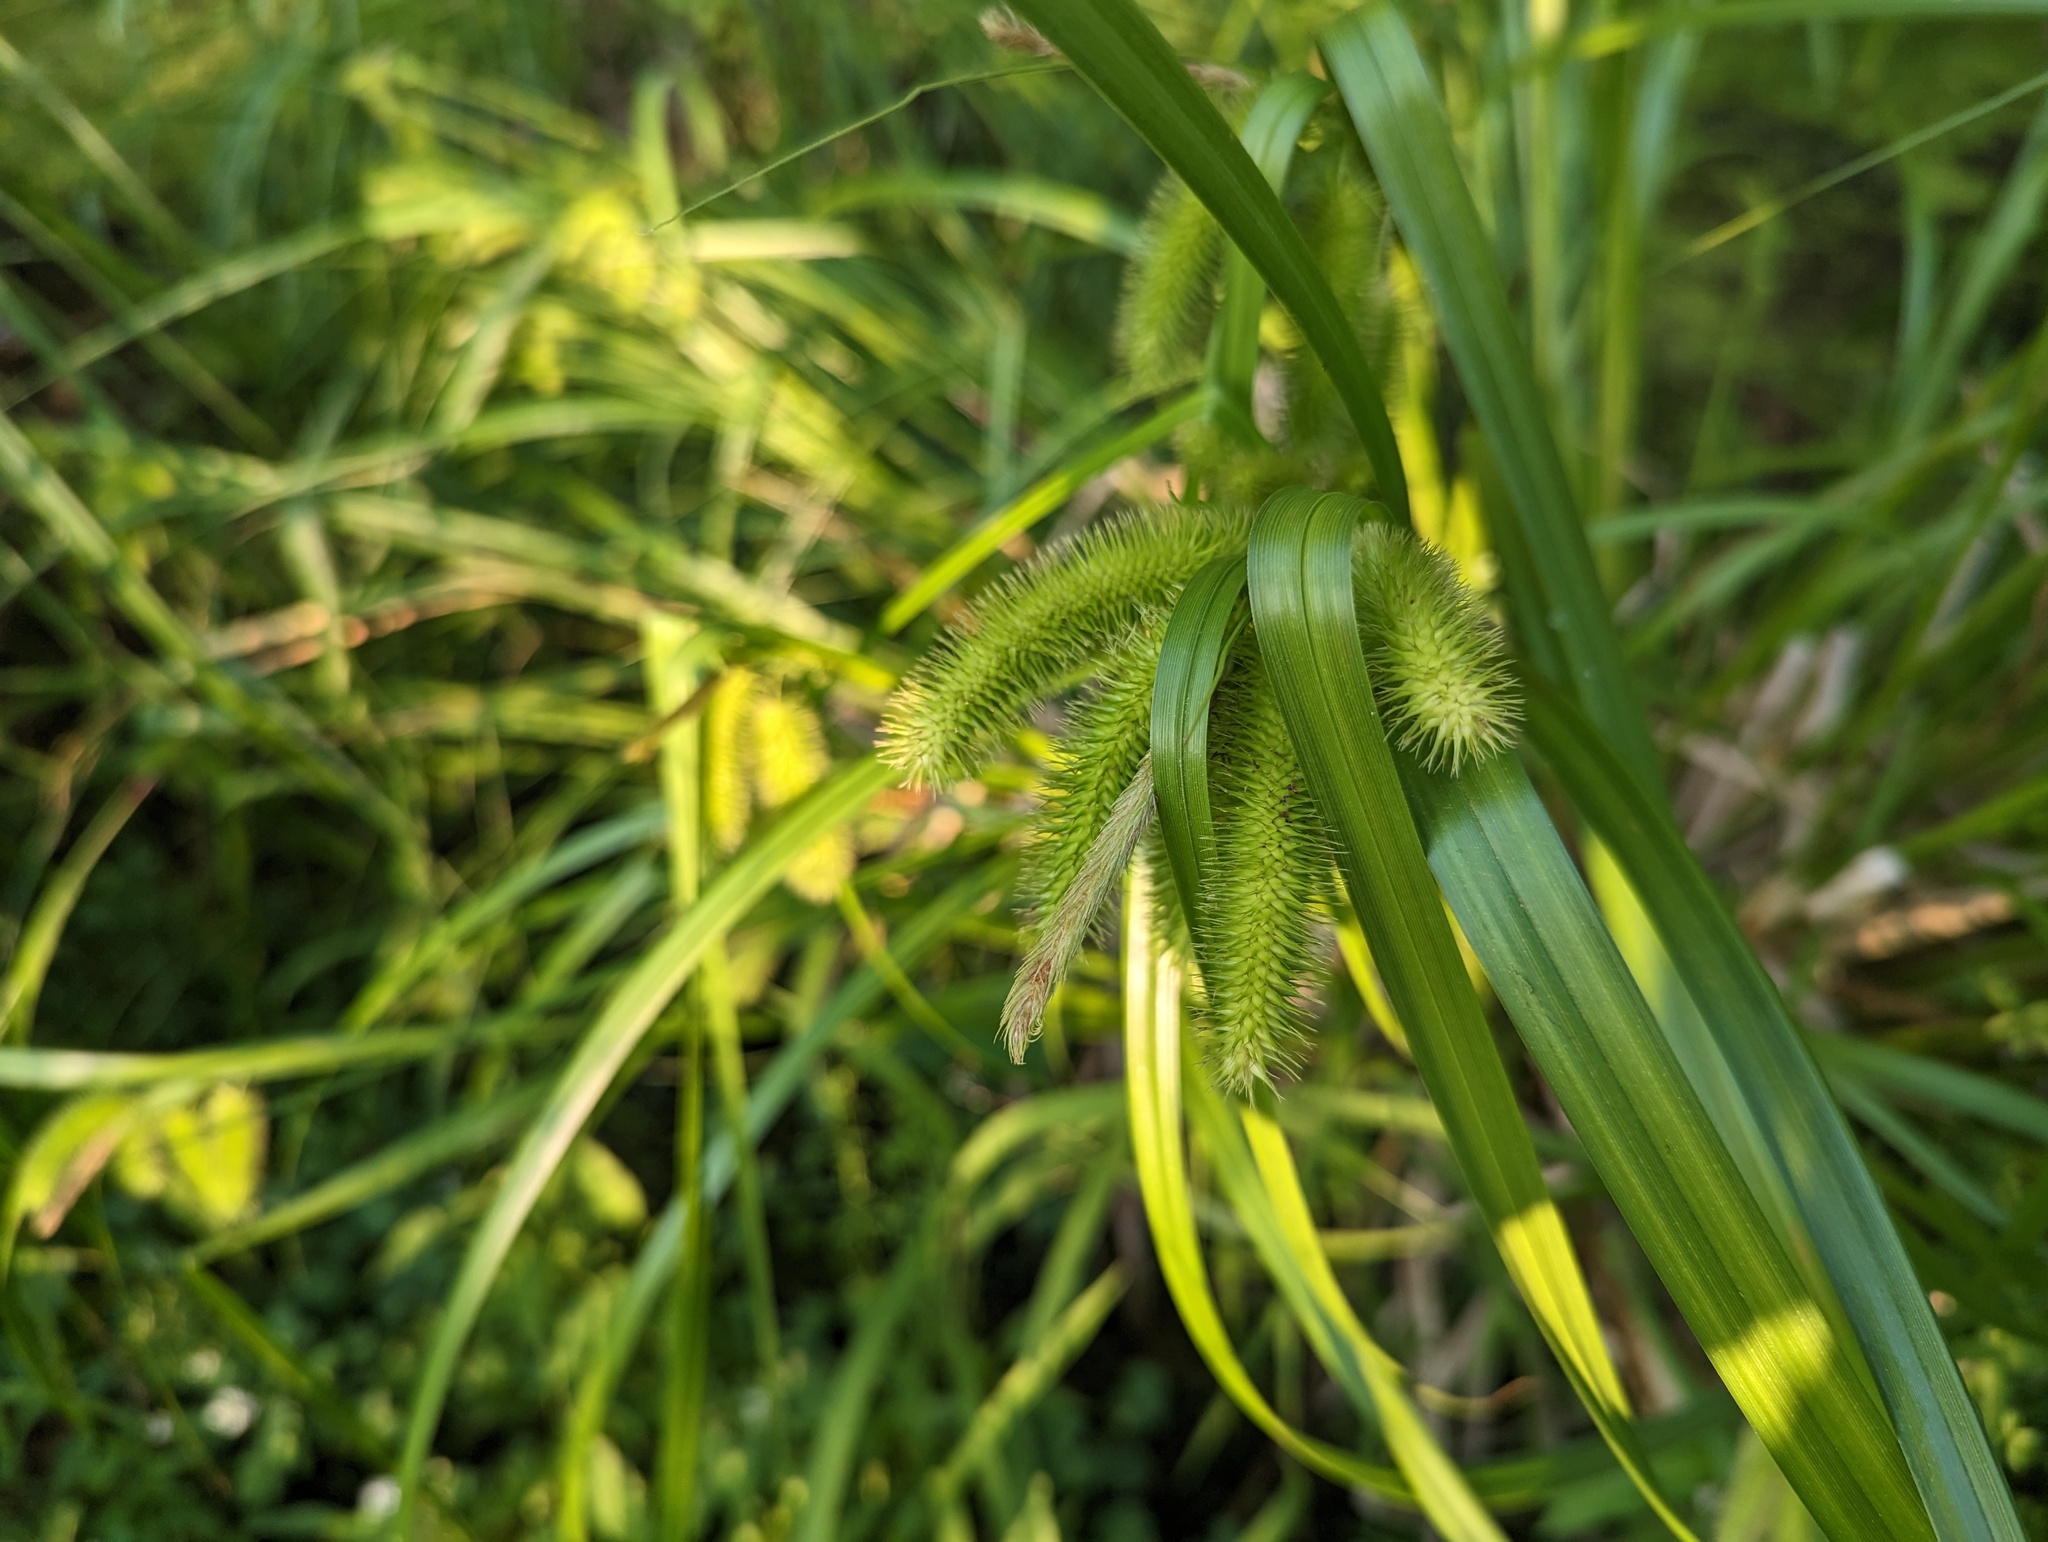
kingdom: Plantae
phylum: Tracheophyta
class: Liliopsida
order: Poales
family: Cyperaceae
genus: Carex
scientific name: Carex comosa
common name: Bristly sedge
